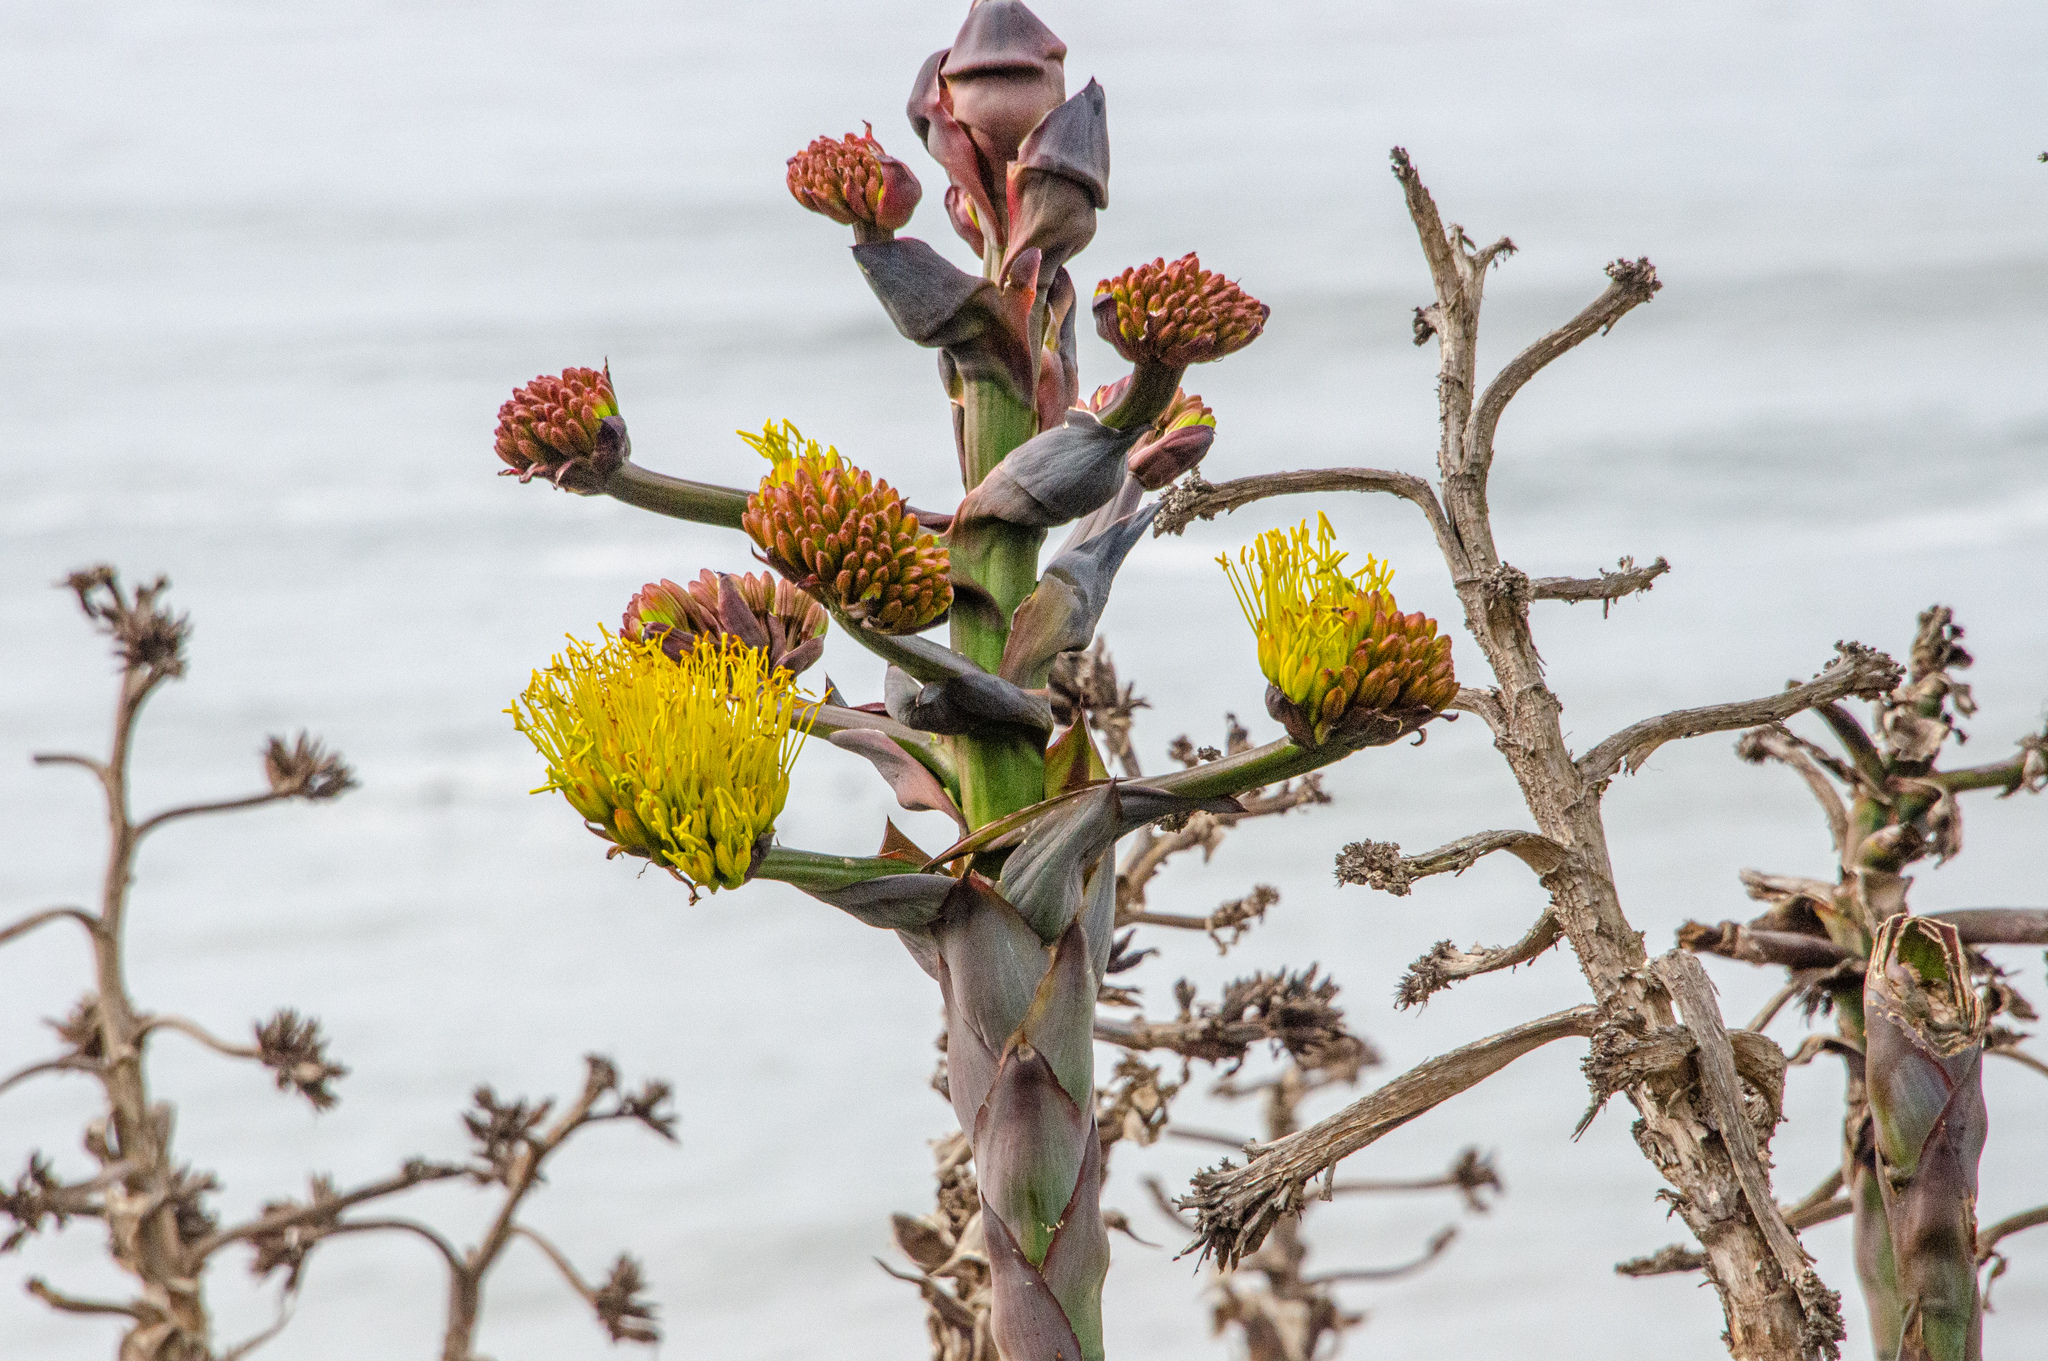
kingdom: Plantae
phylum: Tracheophyta
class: Liliopsida
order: Asparagales
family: Asparagaceae
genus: Agave
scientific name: Agave shawii
